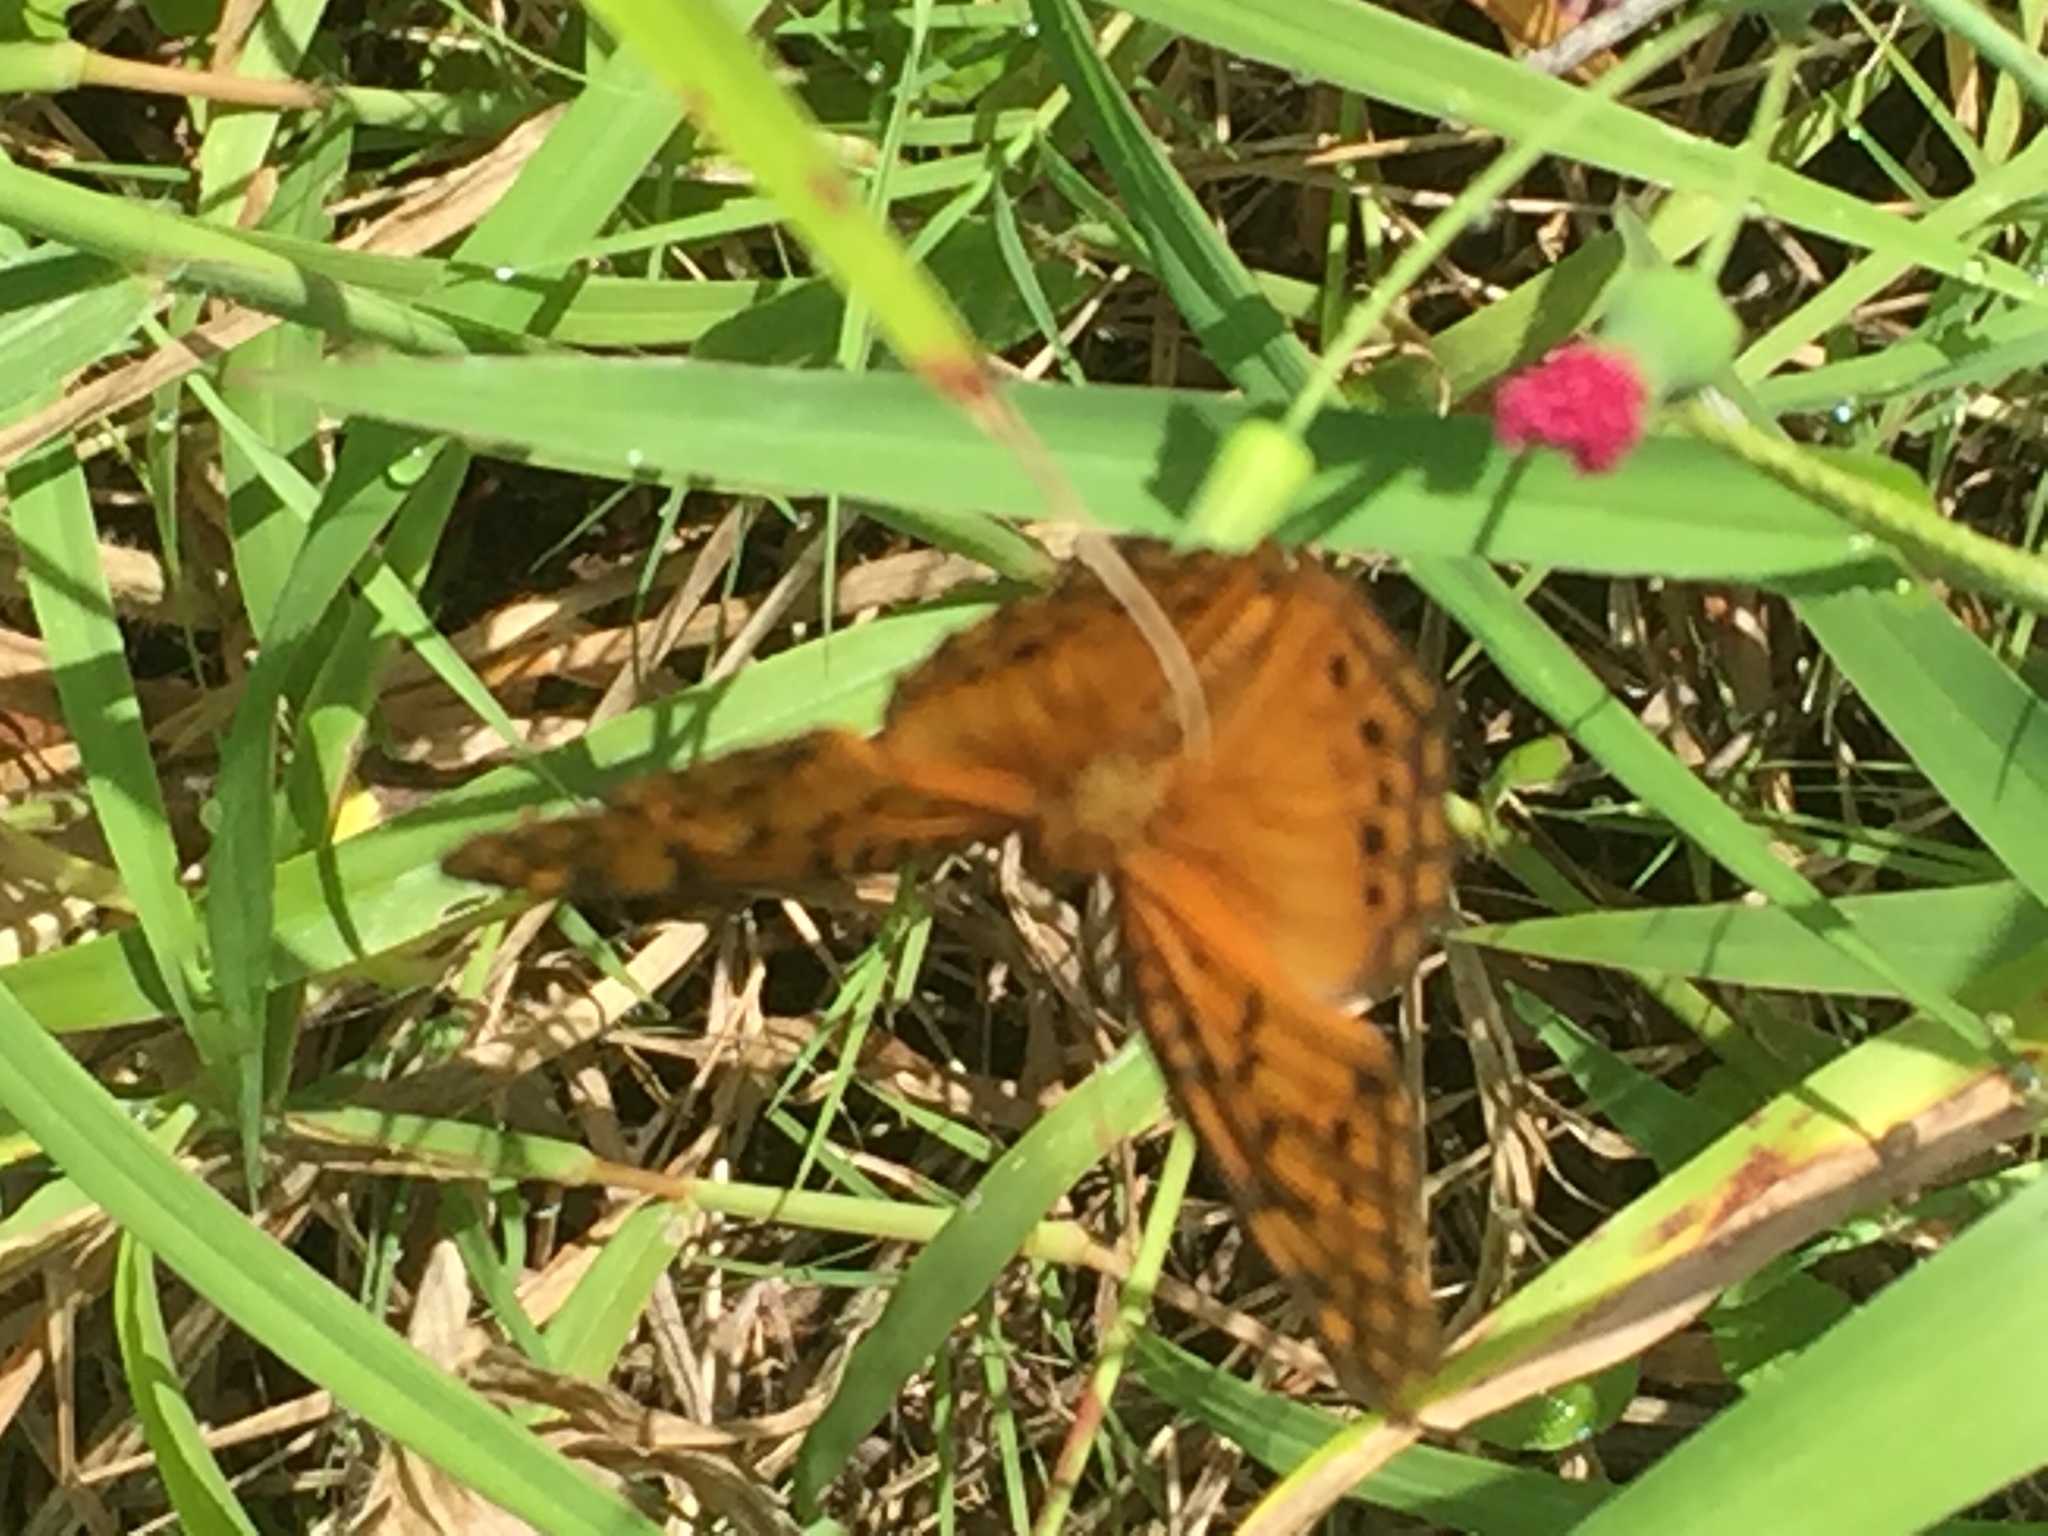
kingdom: Animalia
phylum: Arthropoda
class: Insecta
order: Lepidoptera
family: Nymphalidae
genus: Euptoieta
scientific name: Euptoieta hegesia
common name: Mexican fritillary
